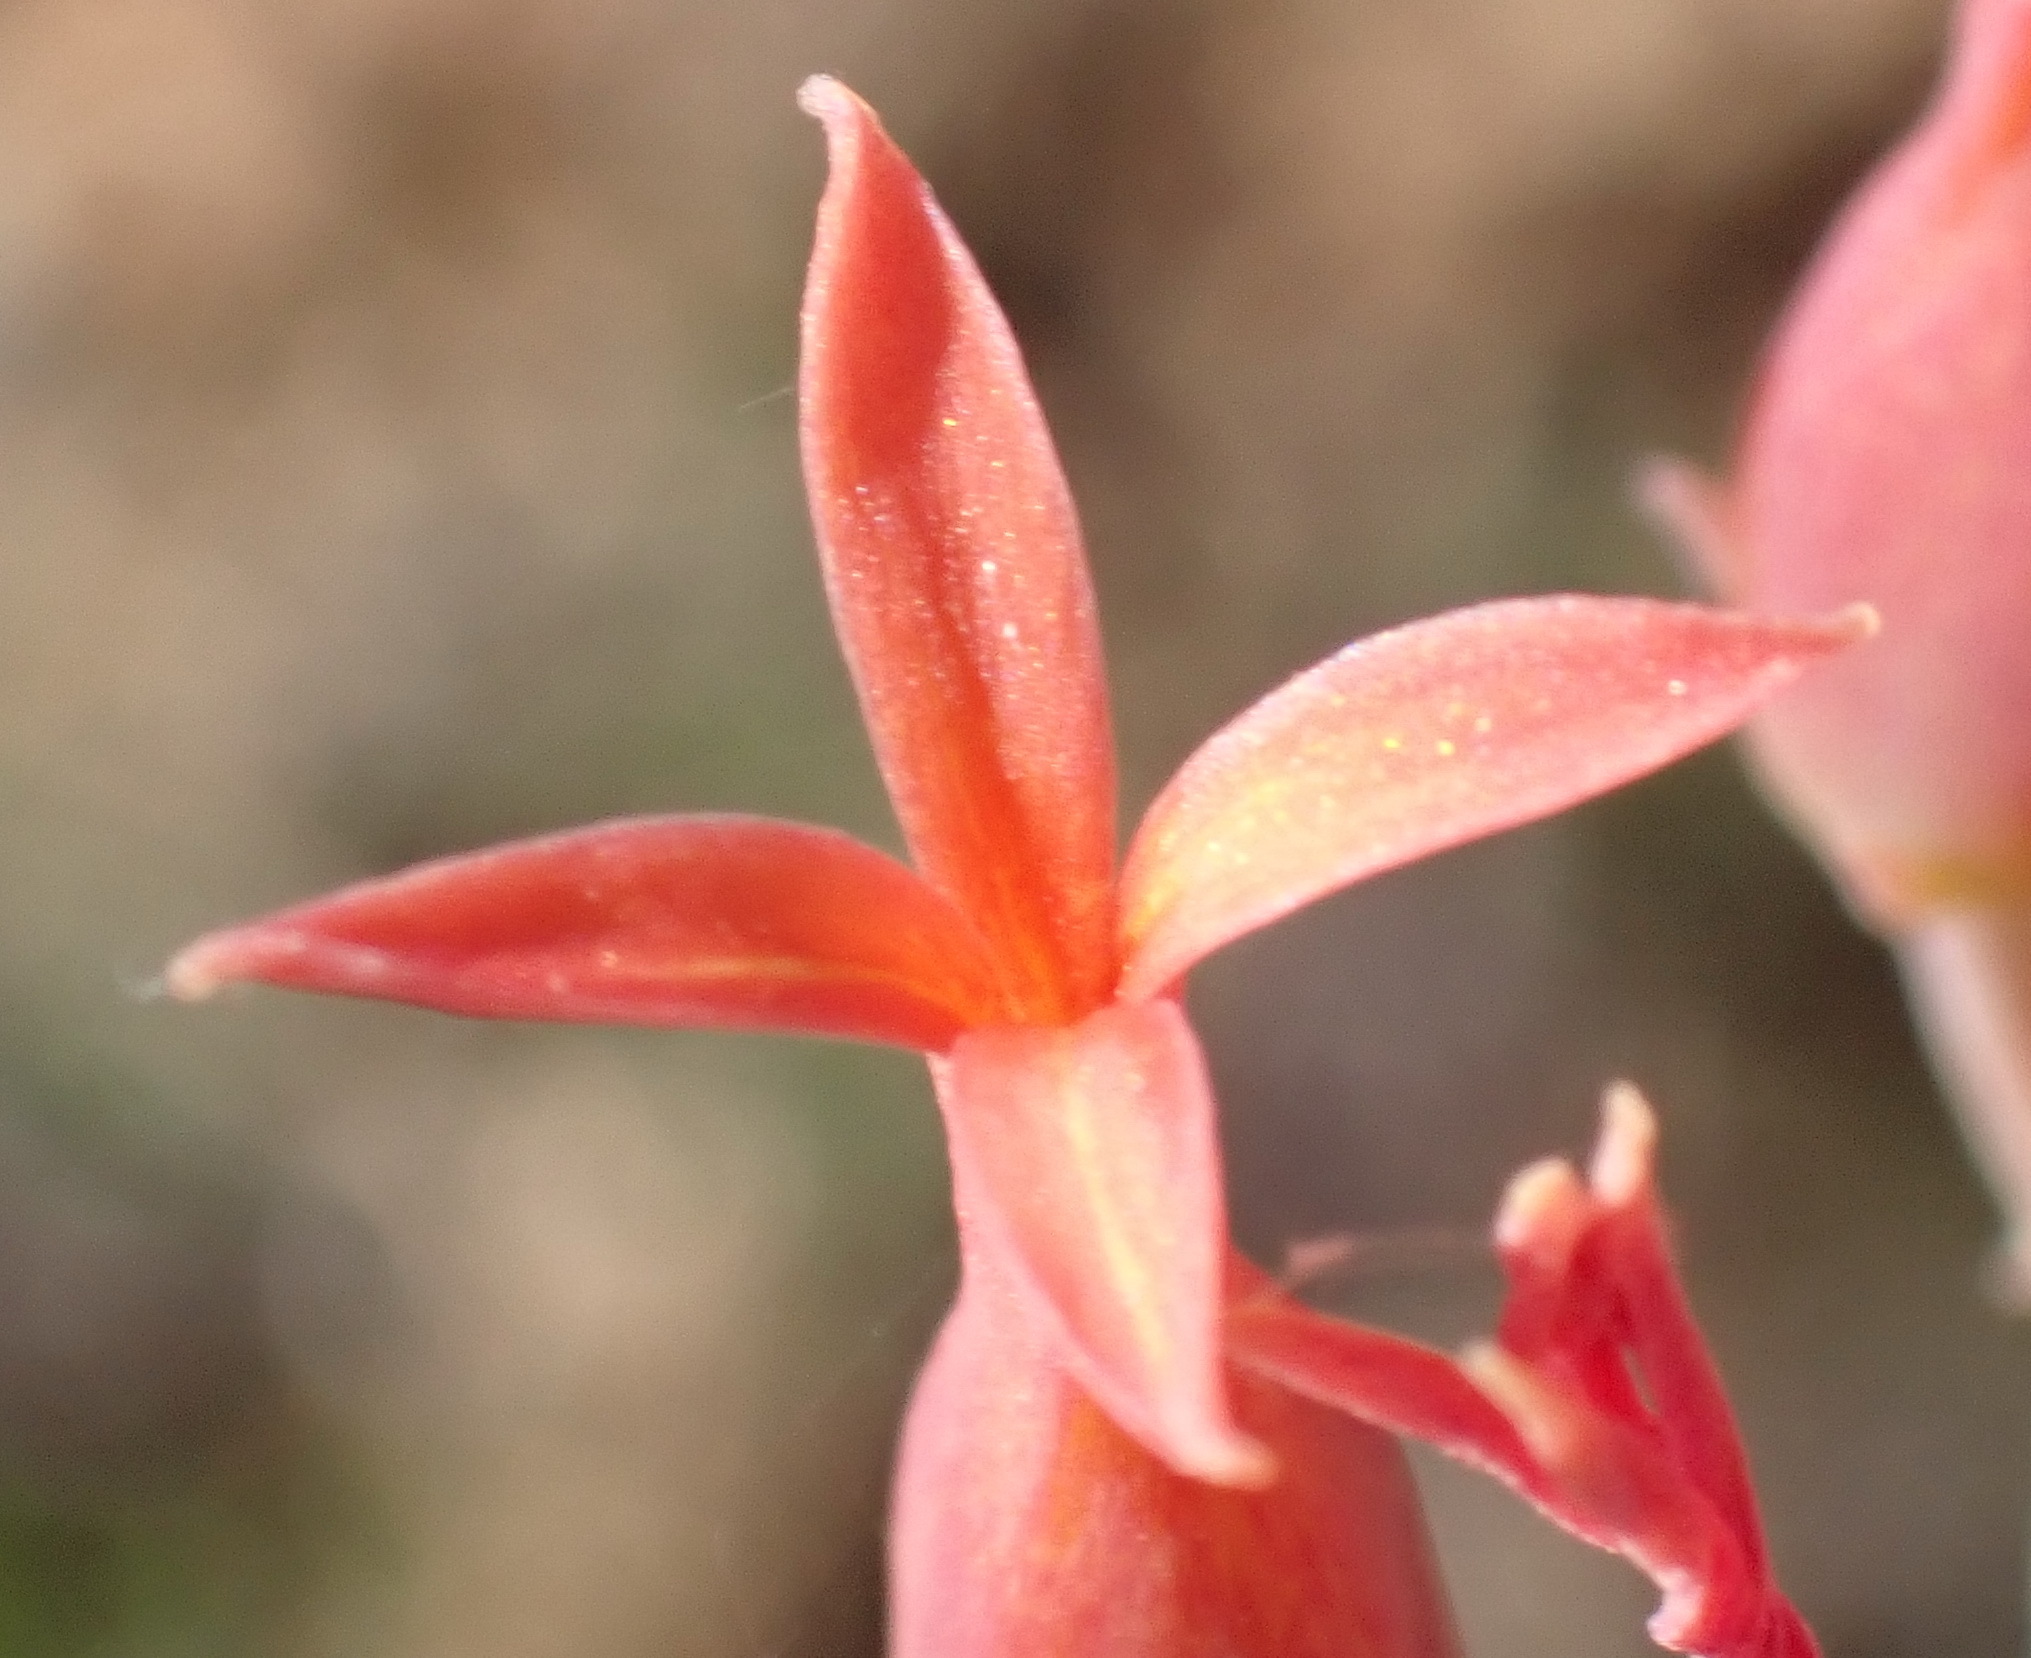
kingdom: Plantae
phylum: Tracheophyta
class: Magnoliopsida
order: Saxifragales
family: Crassulaceae
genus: Kalanchoe
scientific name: Kalanchoe rotundifolia
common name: Common kalanchoe
